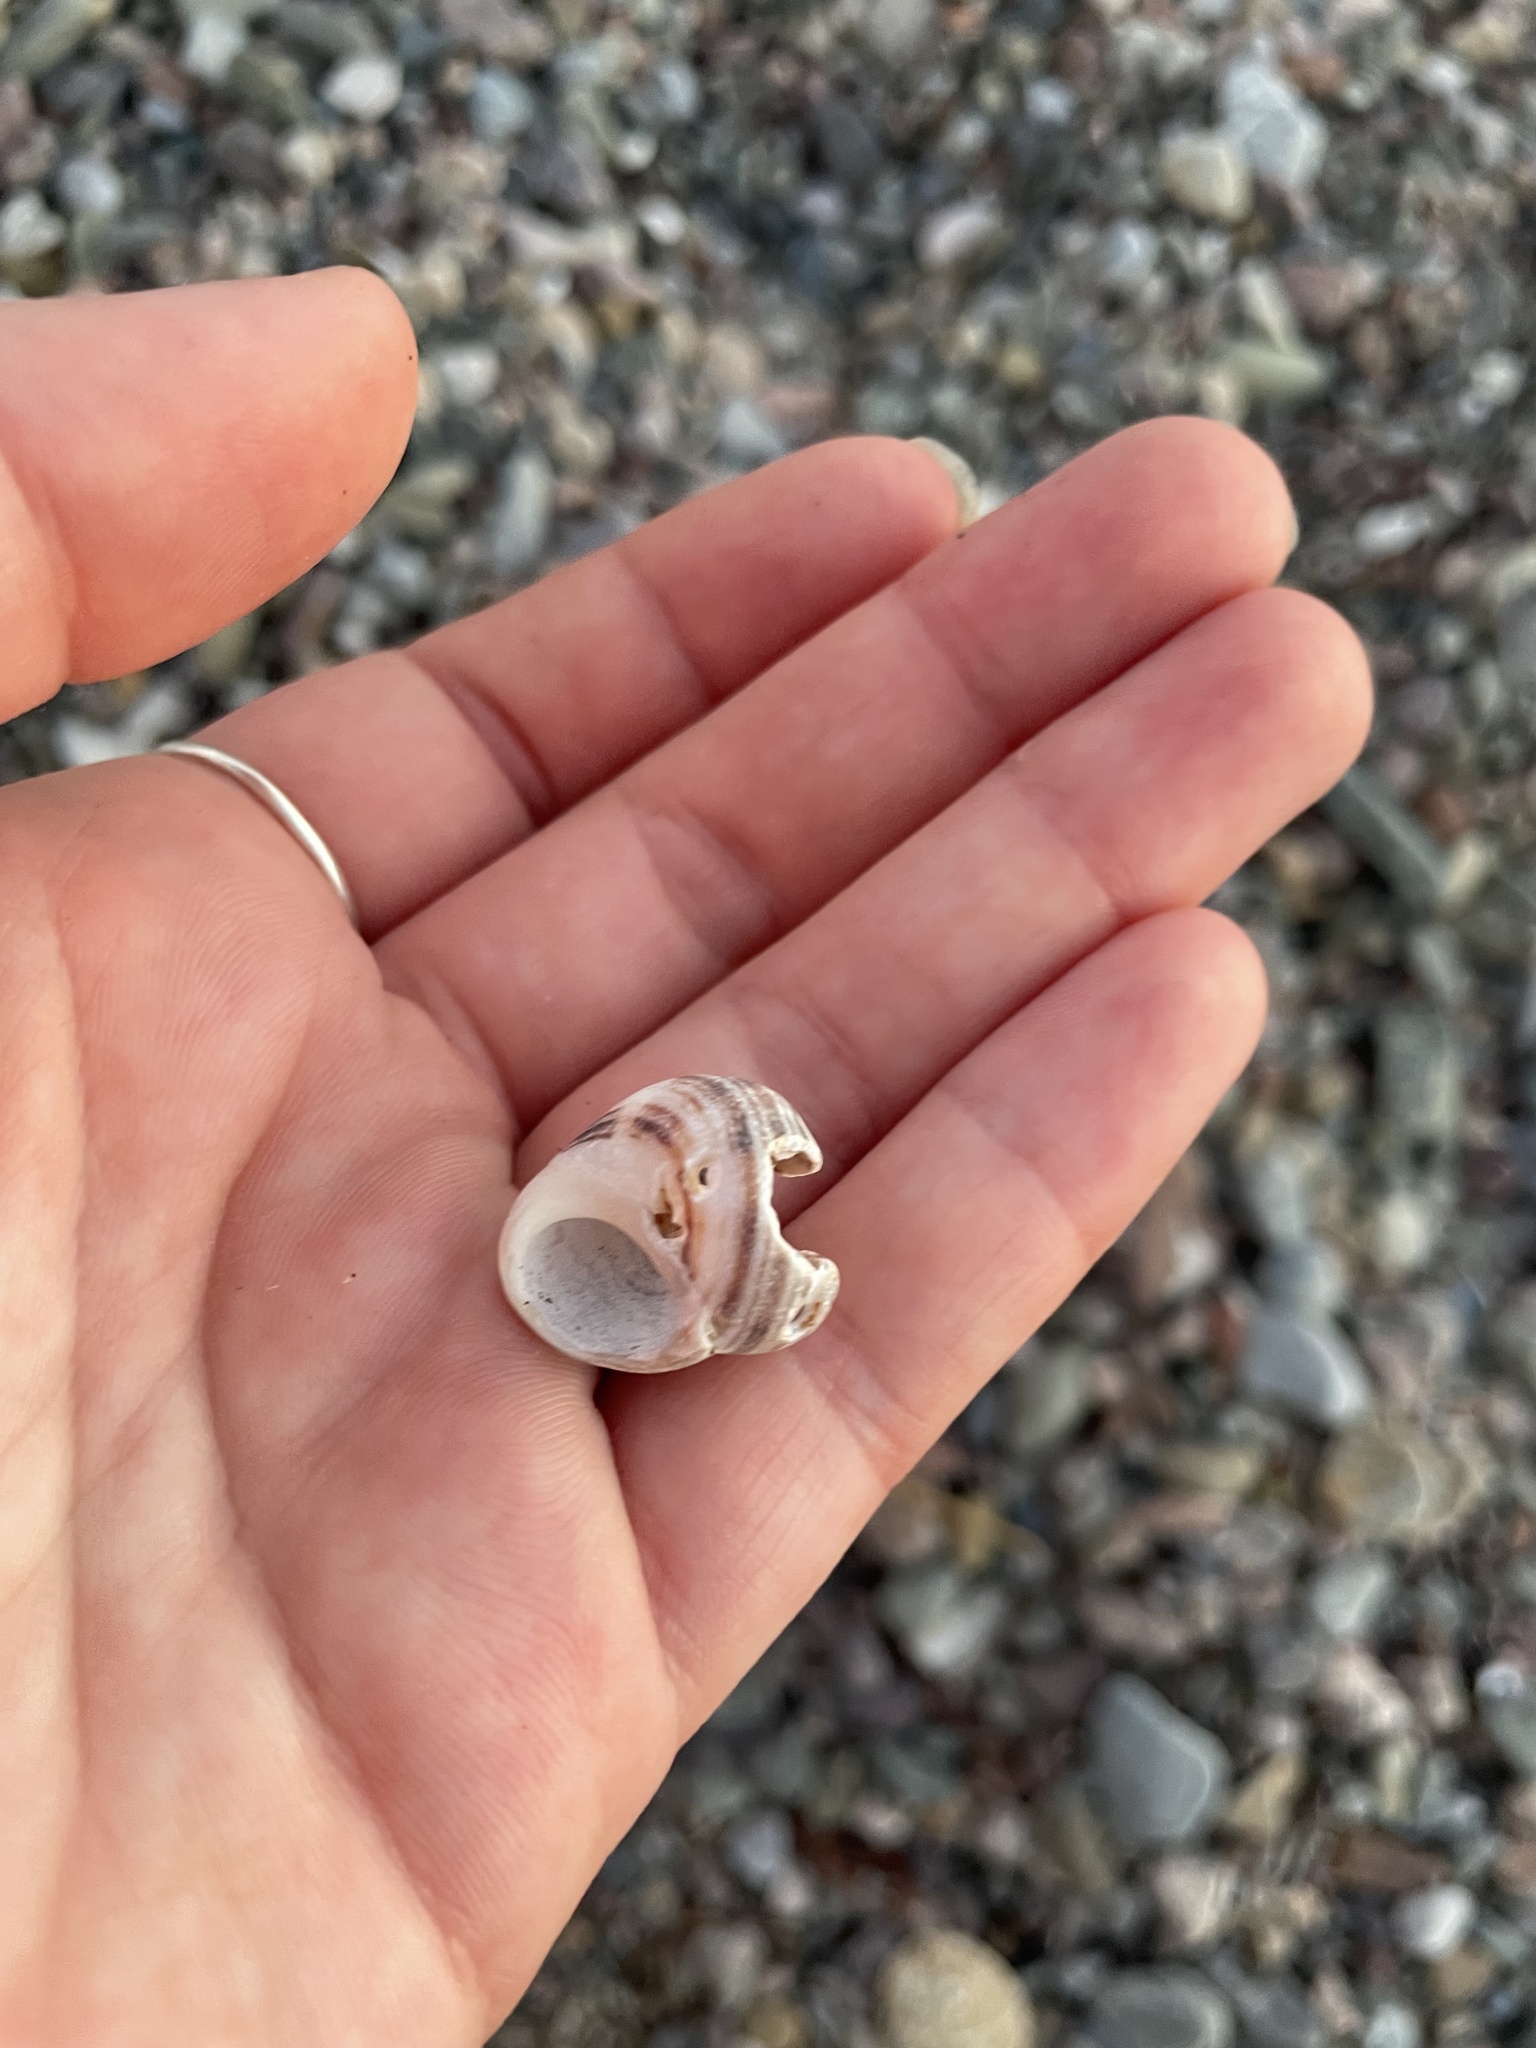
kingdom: Animalia
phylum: Mollusca
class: Gastropoda
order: Littorinimorpha
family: Littorinidae
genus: Littorina
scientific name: Littorina littorea
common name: Common periwinkle
